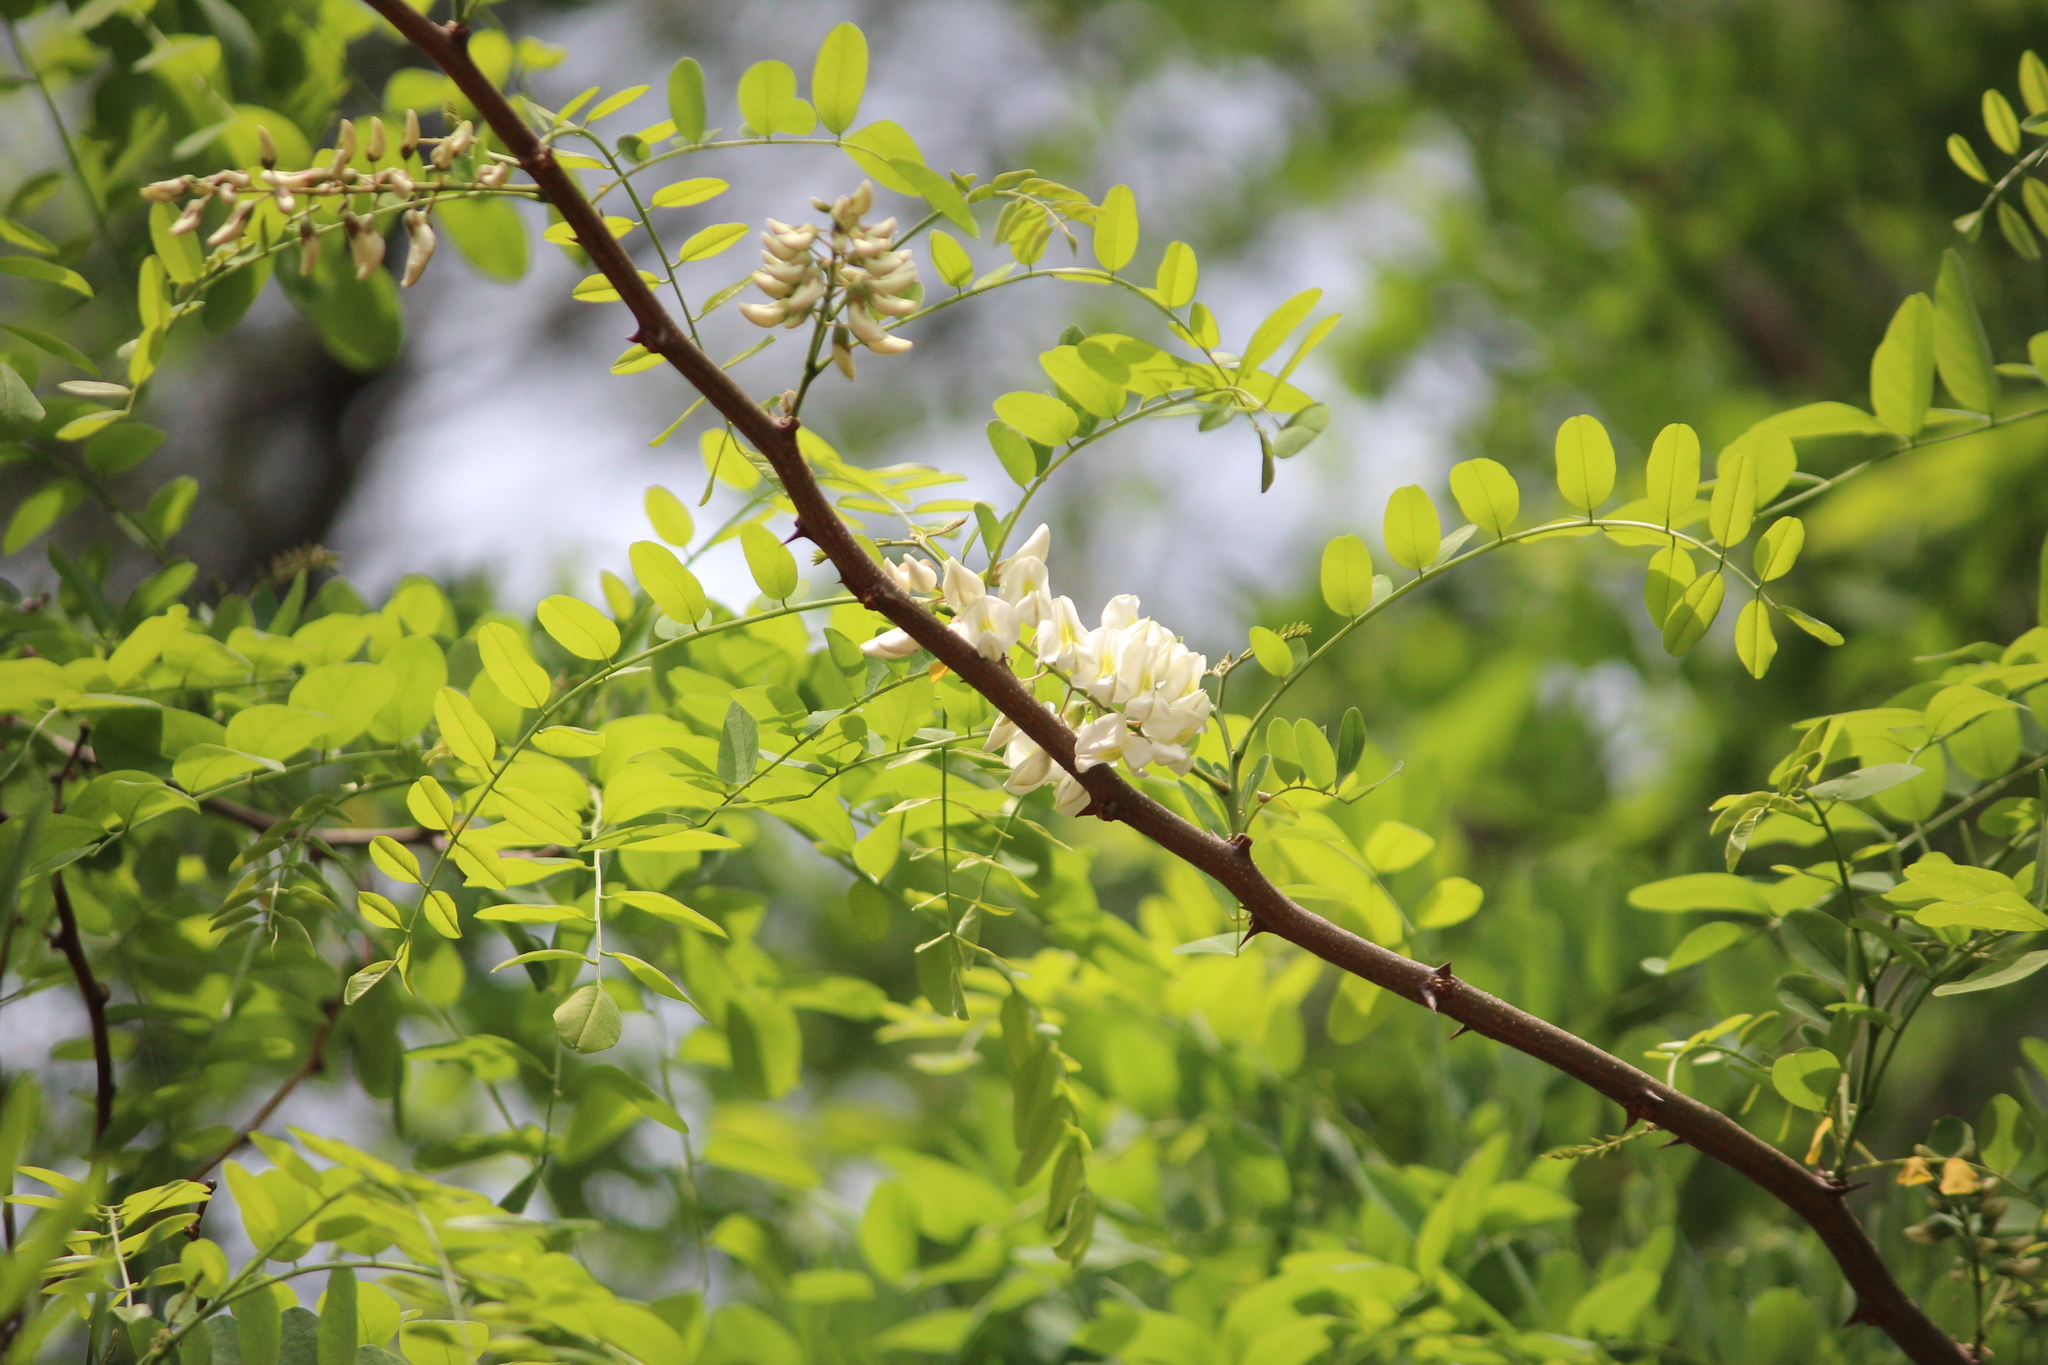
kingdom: Plantae
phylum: Tracheophyta
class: Magnoliopsida
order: Fabales
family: Fabaceae
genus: Robinia
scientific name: Robinia pseudoacacia
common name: Black locust
